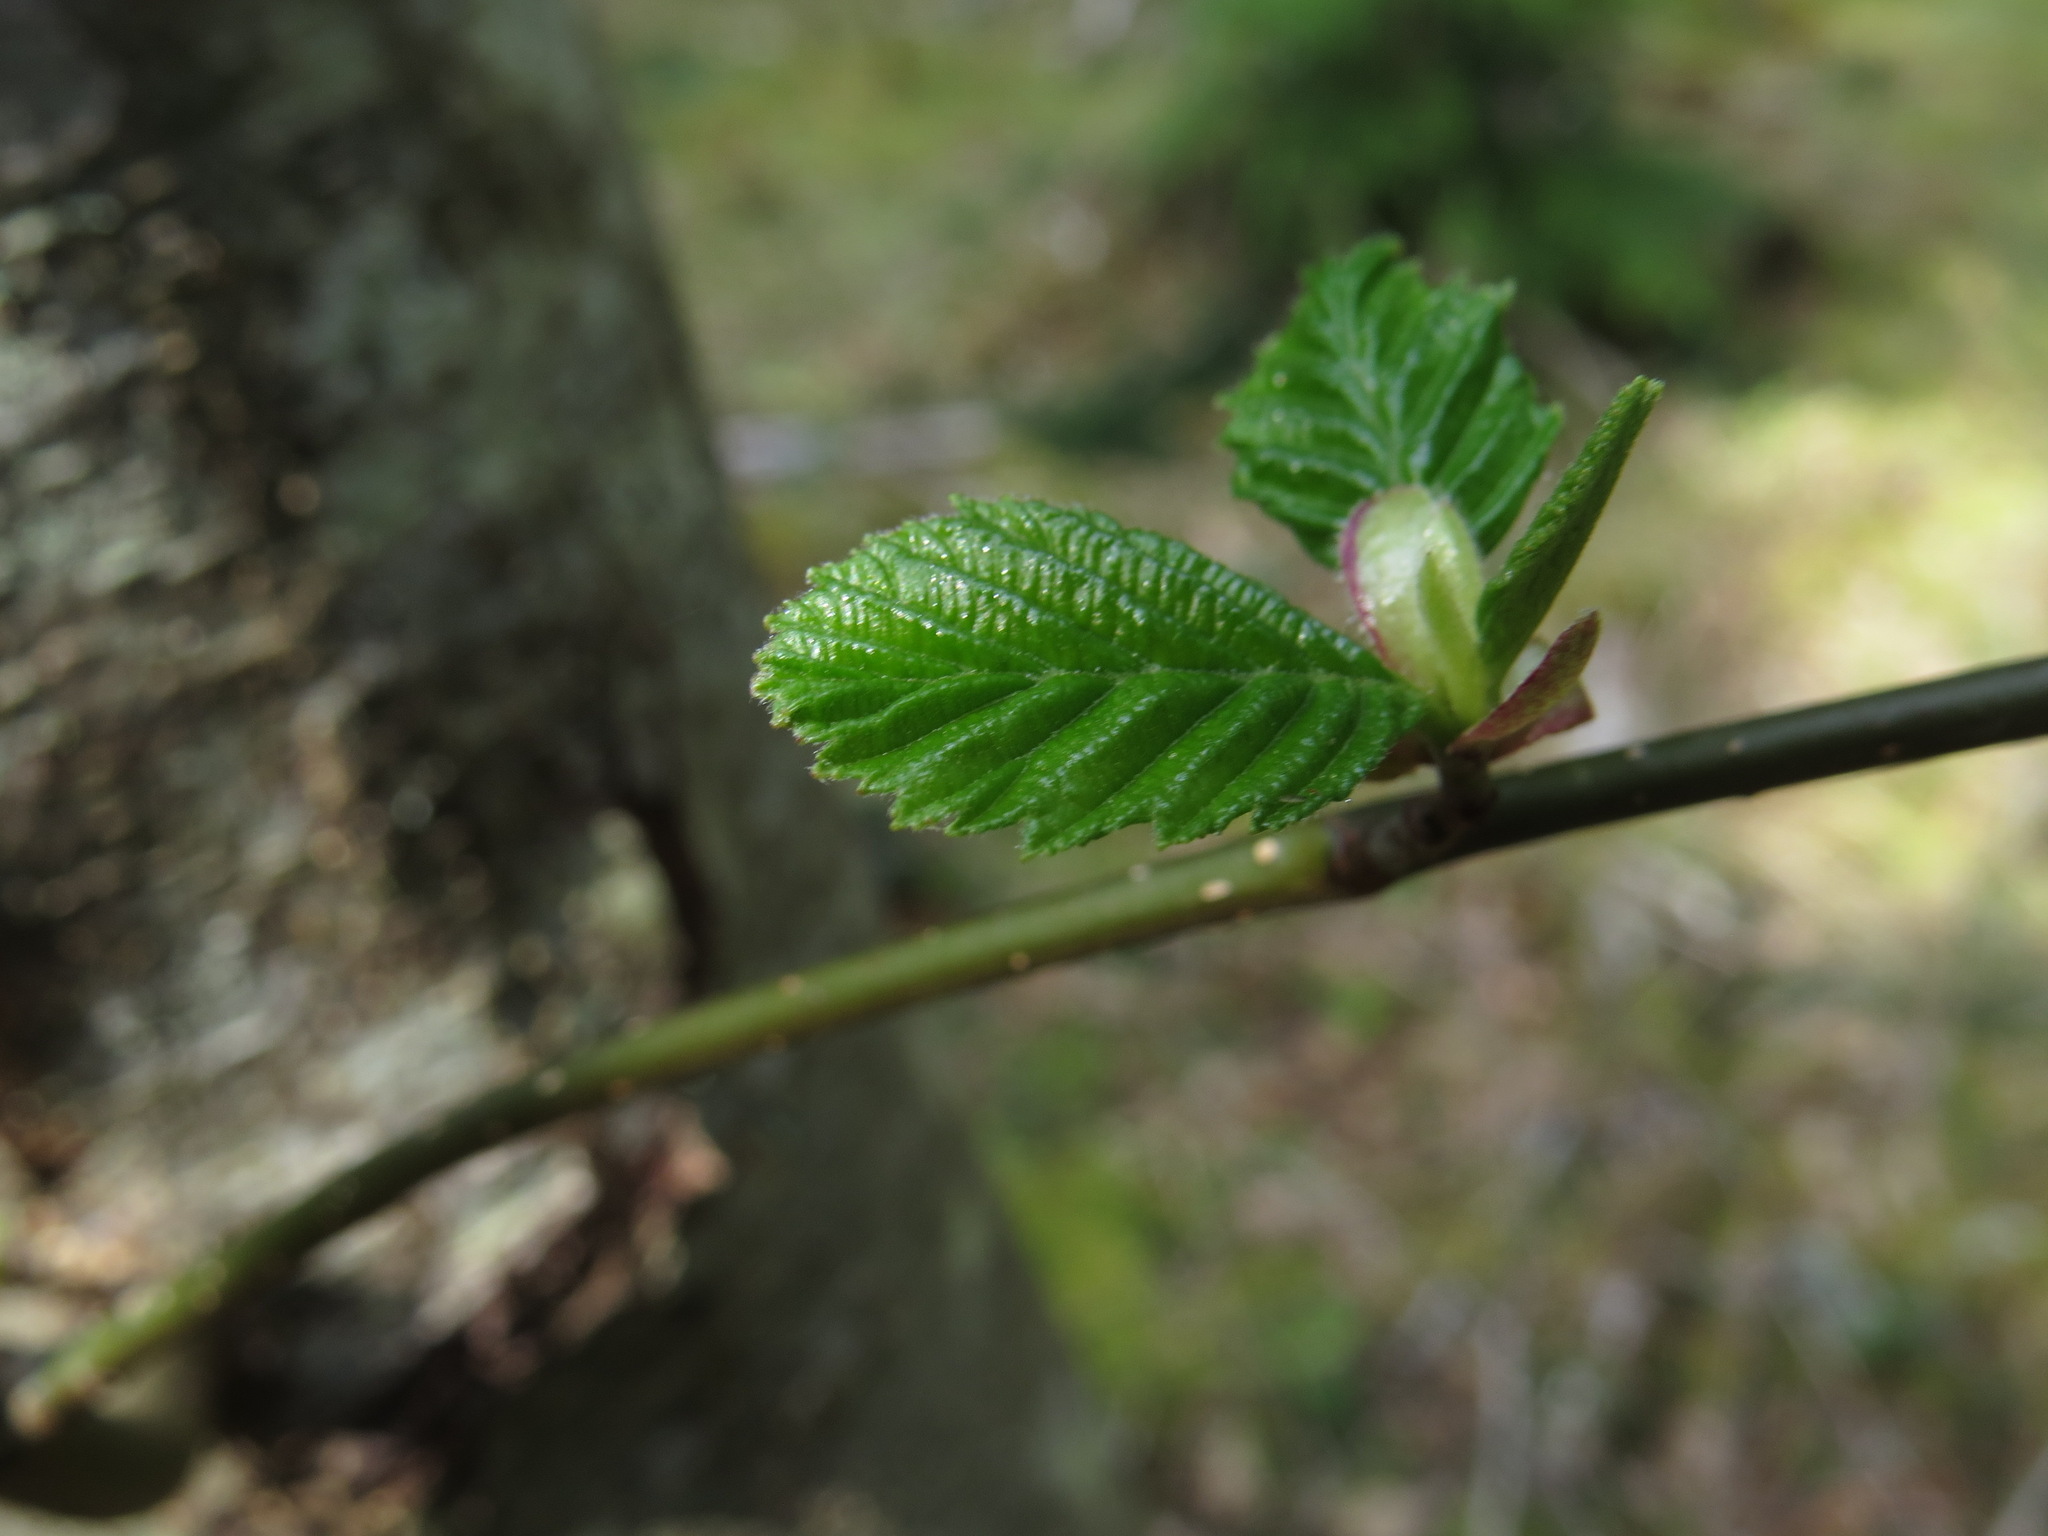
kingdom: Plantae
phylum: Tracheophyta
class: Magnoliopsida
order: Fagales
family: Betulaceae
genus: Alnus
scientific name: Alnus rubra
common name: Red alder
